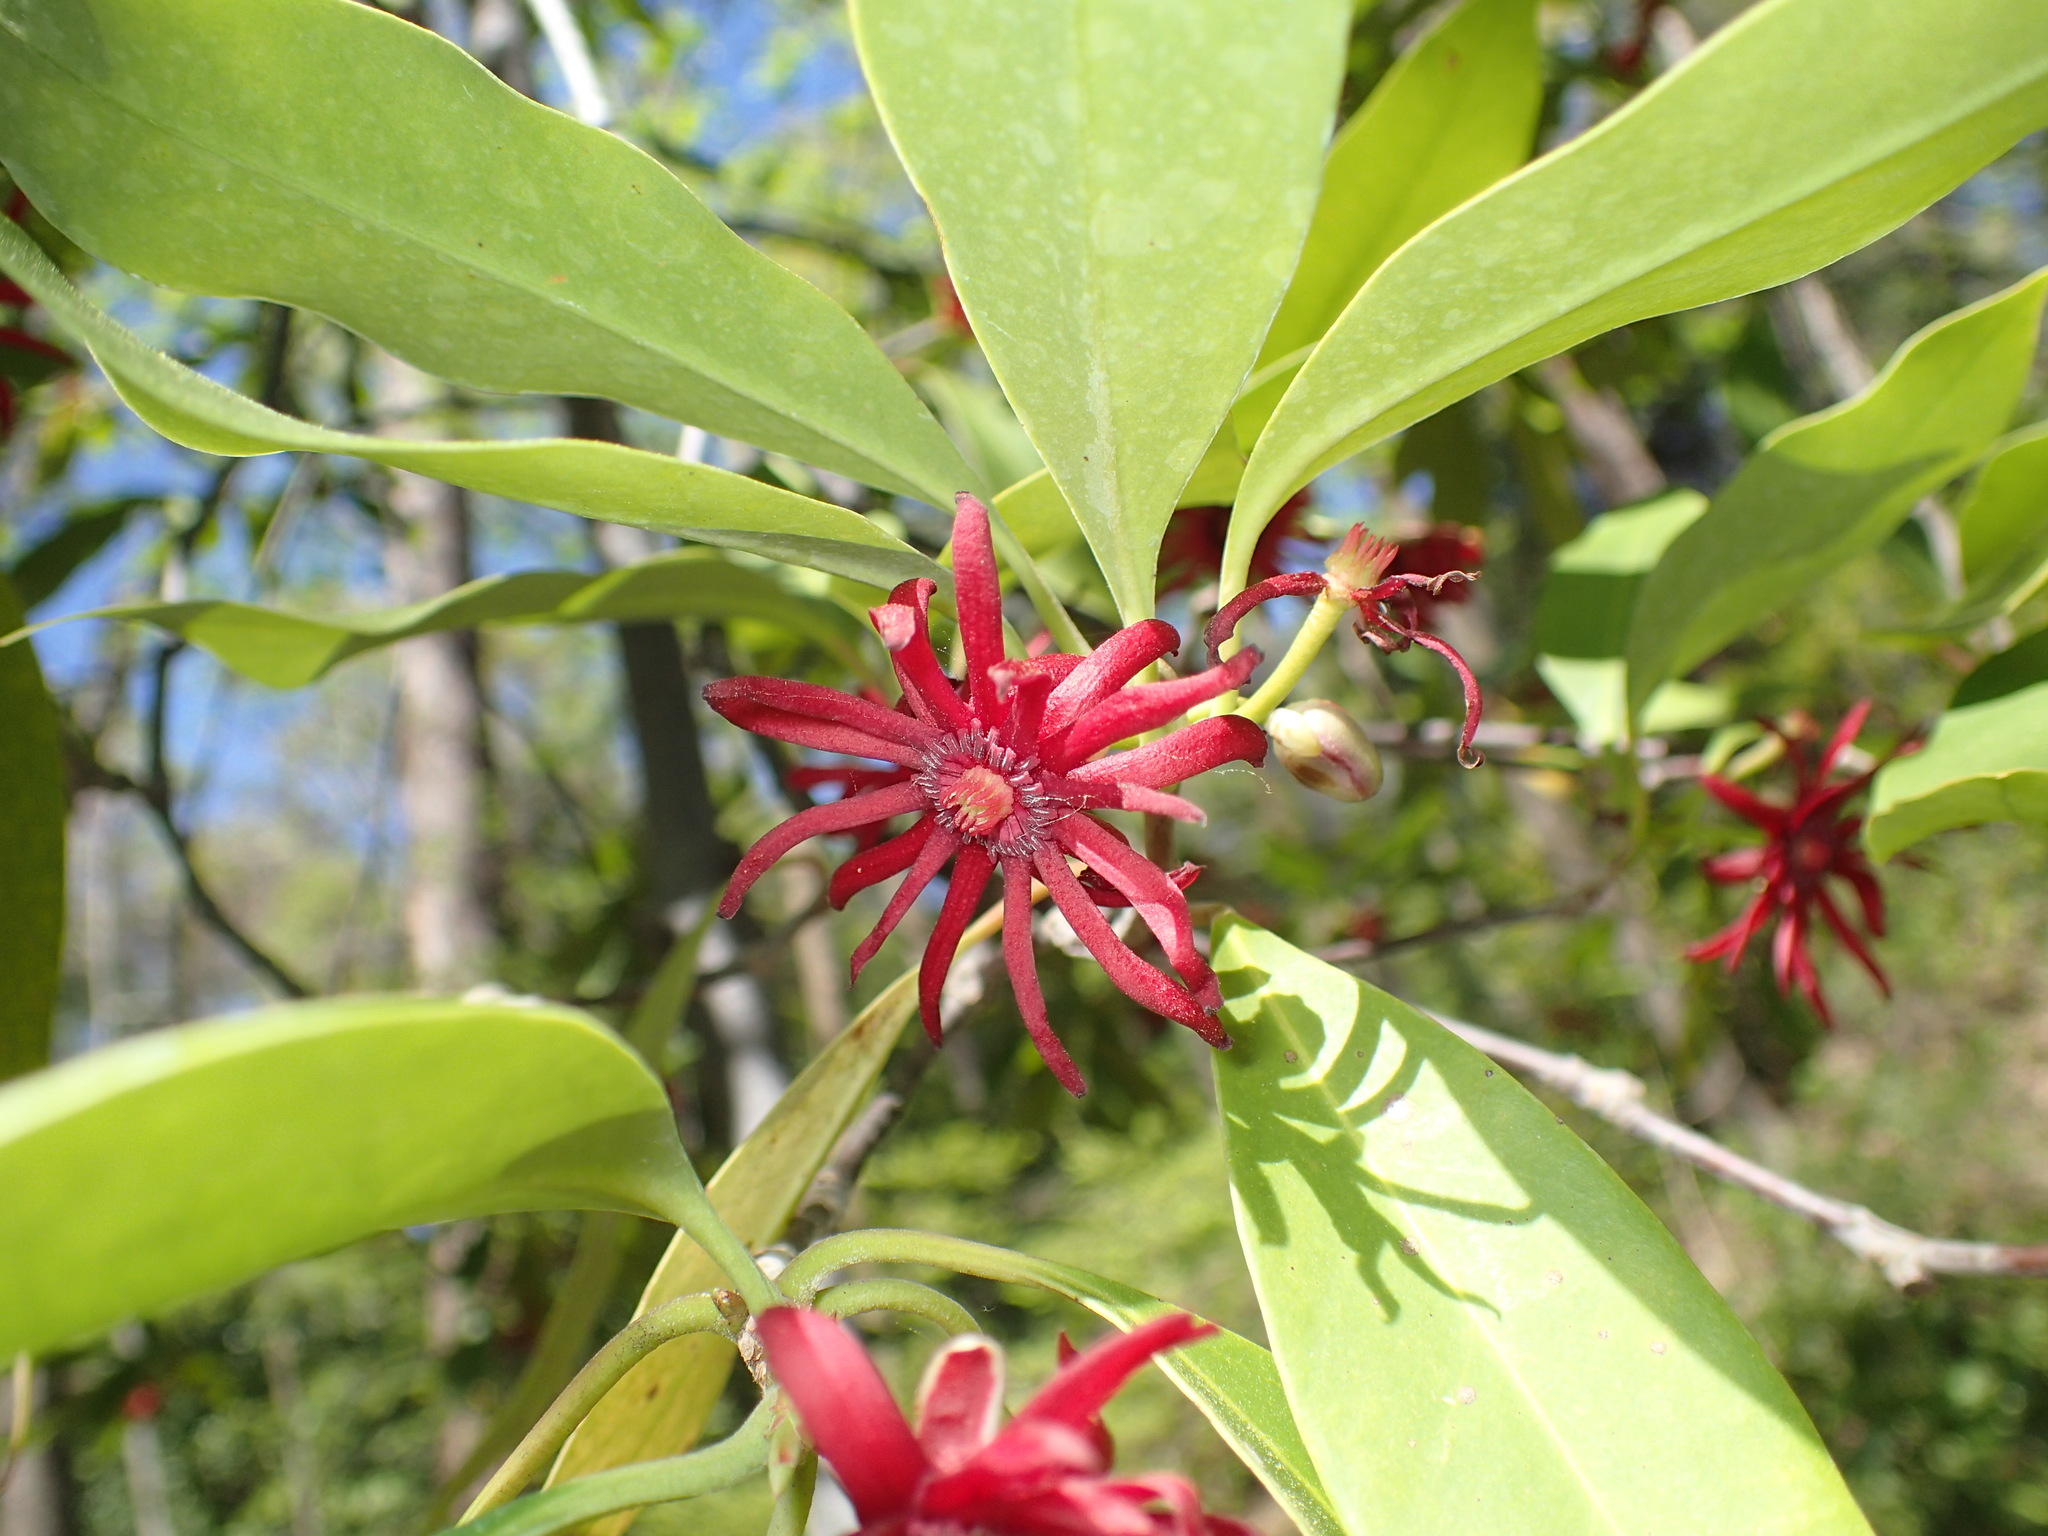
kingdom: Plantae
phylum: Tracheophyta
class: Magnoliopsida
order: Austrobaileyales
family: Schisandraceae
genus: Illicium
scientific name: Illicium floridanum
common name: Florida anisetree
